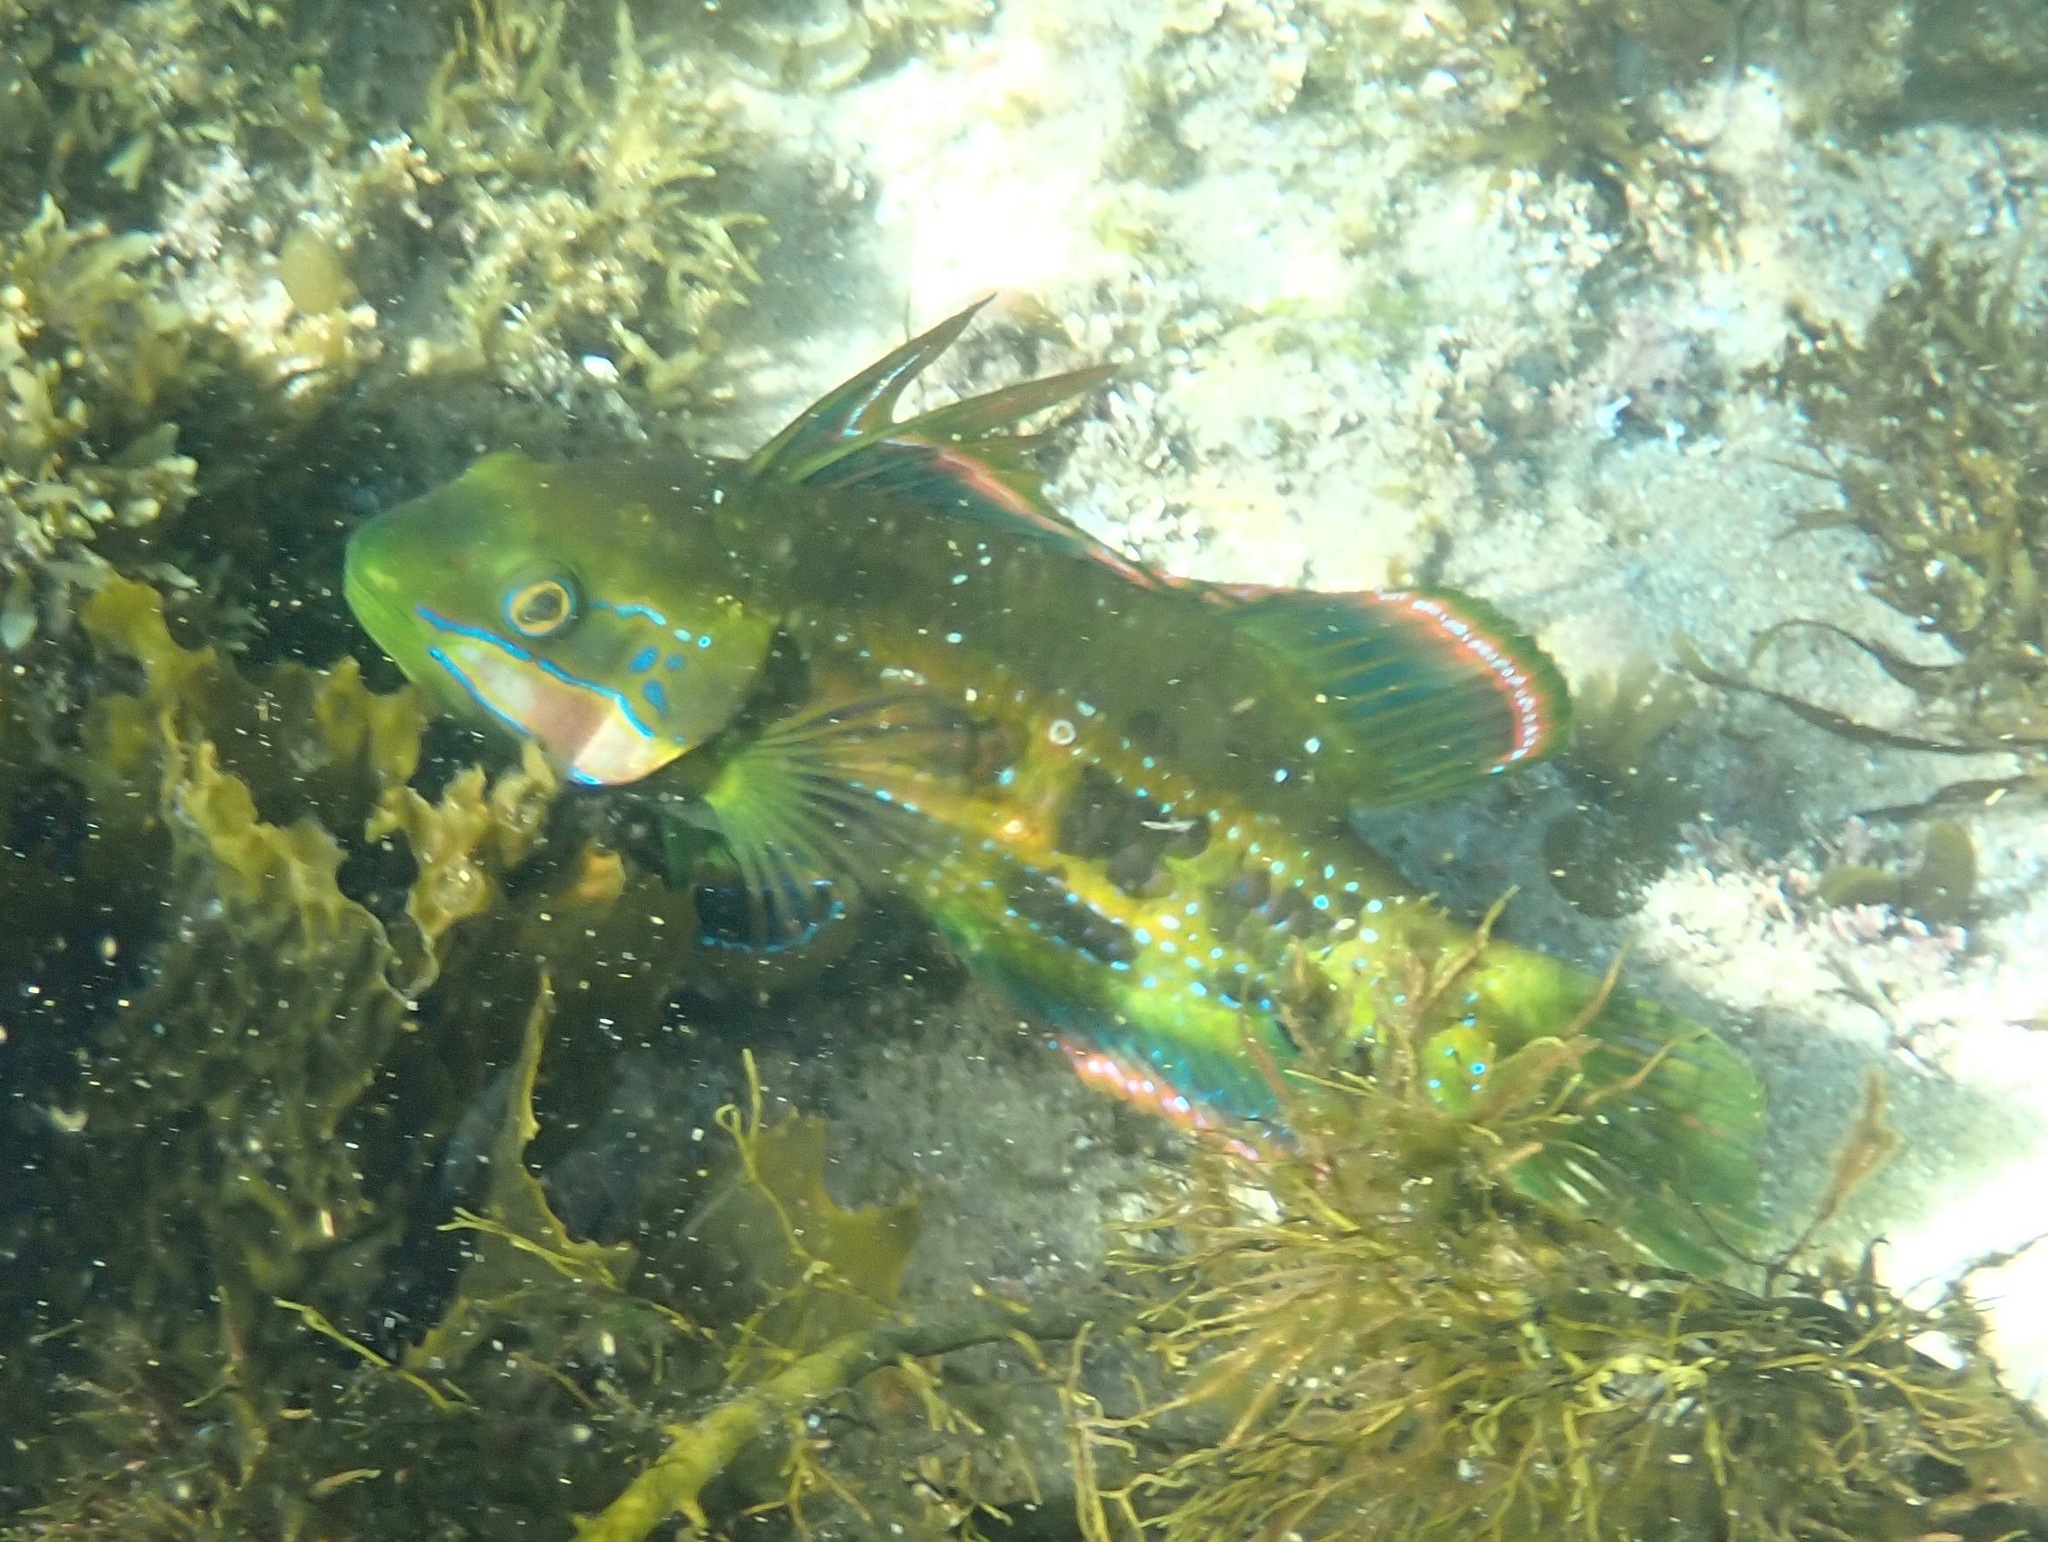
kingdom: Animalia
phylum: Chordata
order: Perciformes
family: Odacidae
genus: Heteroscarus
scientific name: Heteroscarus acroptilus
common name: Marine rainbowfish
